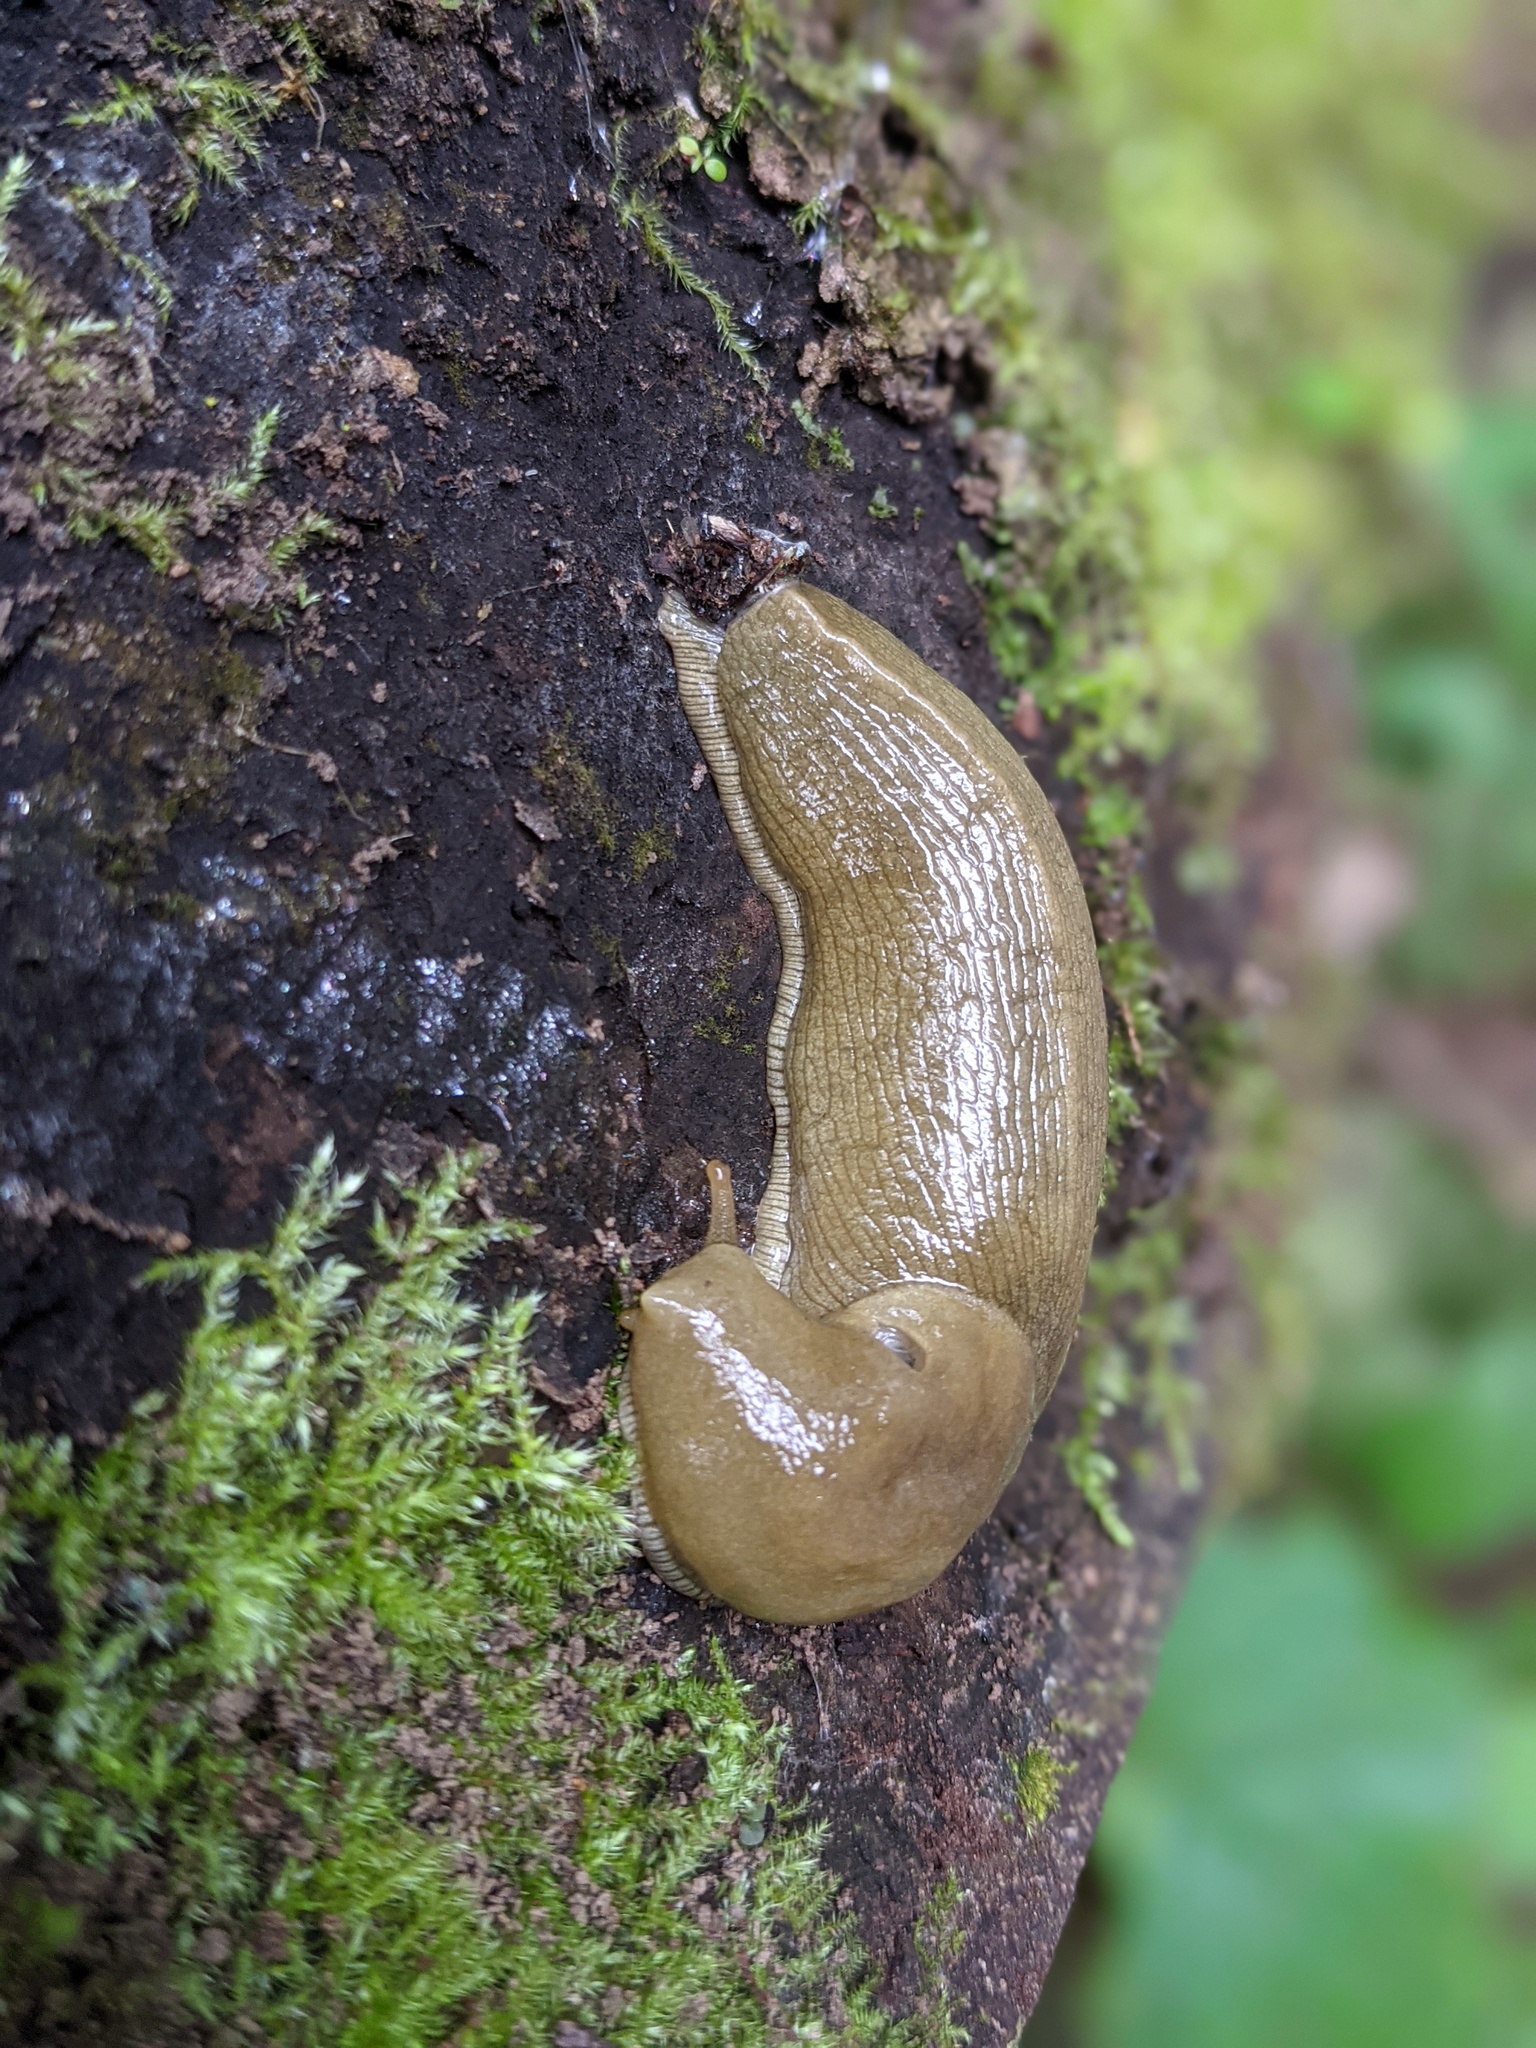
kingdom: Animalia
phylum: Mollusca
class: Gastropoda
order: Stylommatophora
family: Ariolimacidae
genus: Ariolimax
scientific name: Ariolimax columbianus
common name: Pacific banana slug
